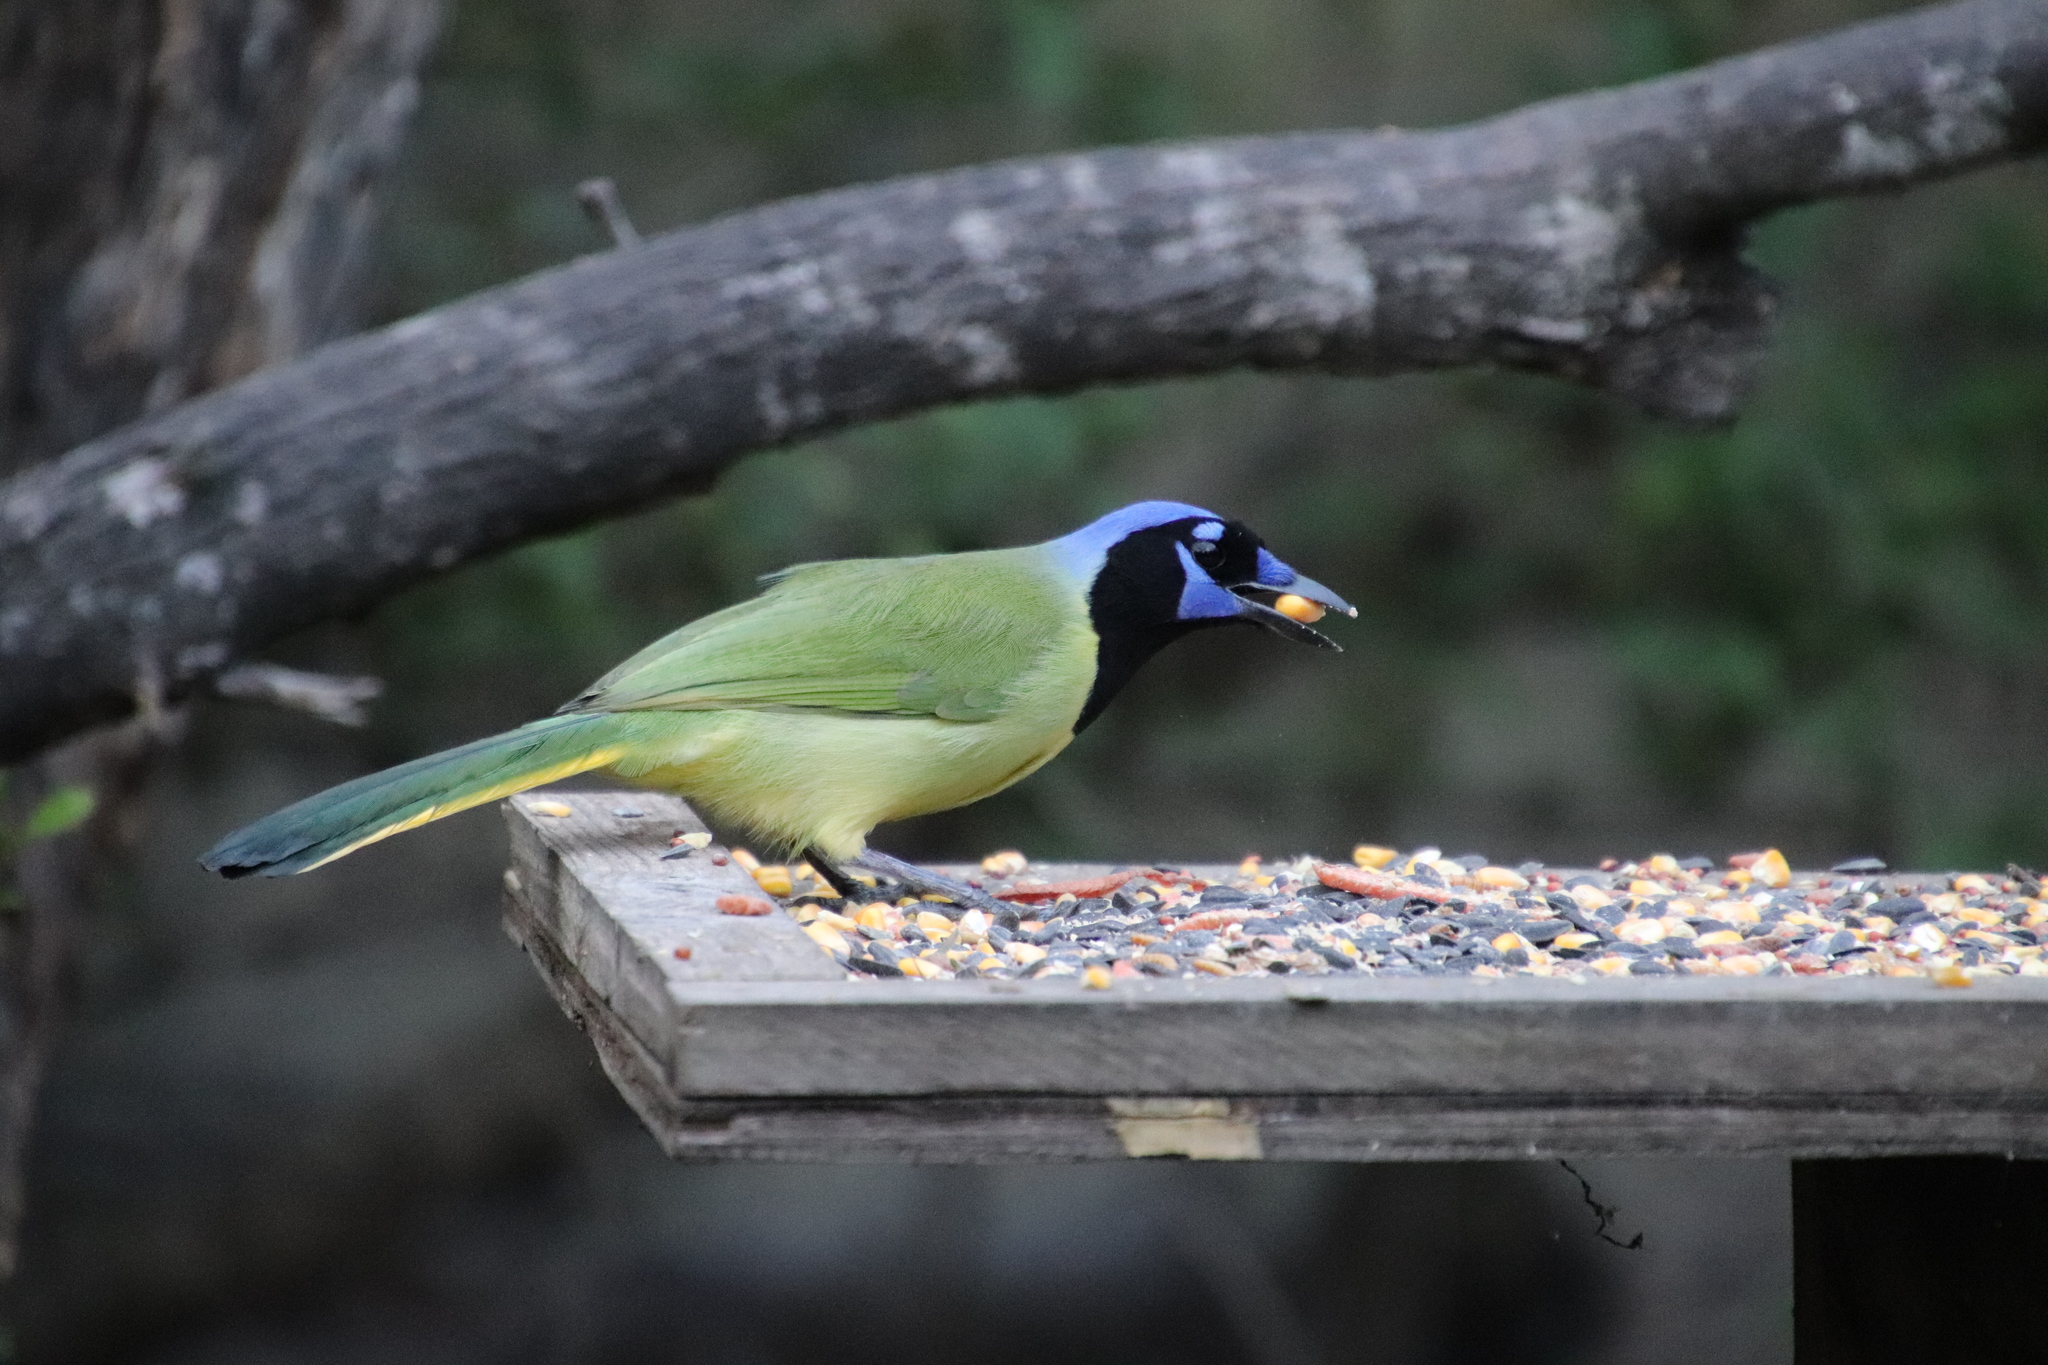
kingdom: Animalia
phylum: Chordata
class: Aves
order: Passeriformes
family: Corvidae
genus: Cyanocorax
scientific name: Cyanocorax yncas
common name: Green jay
